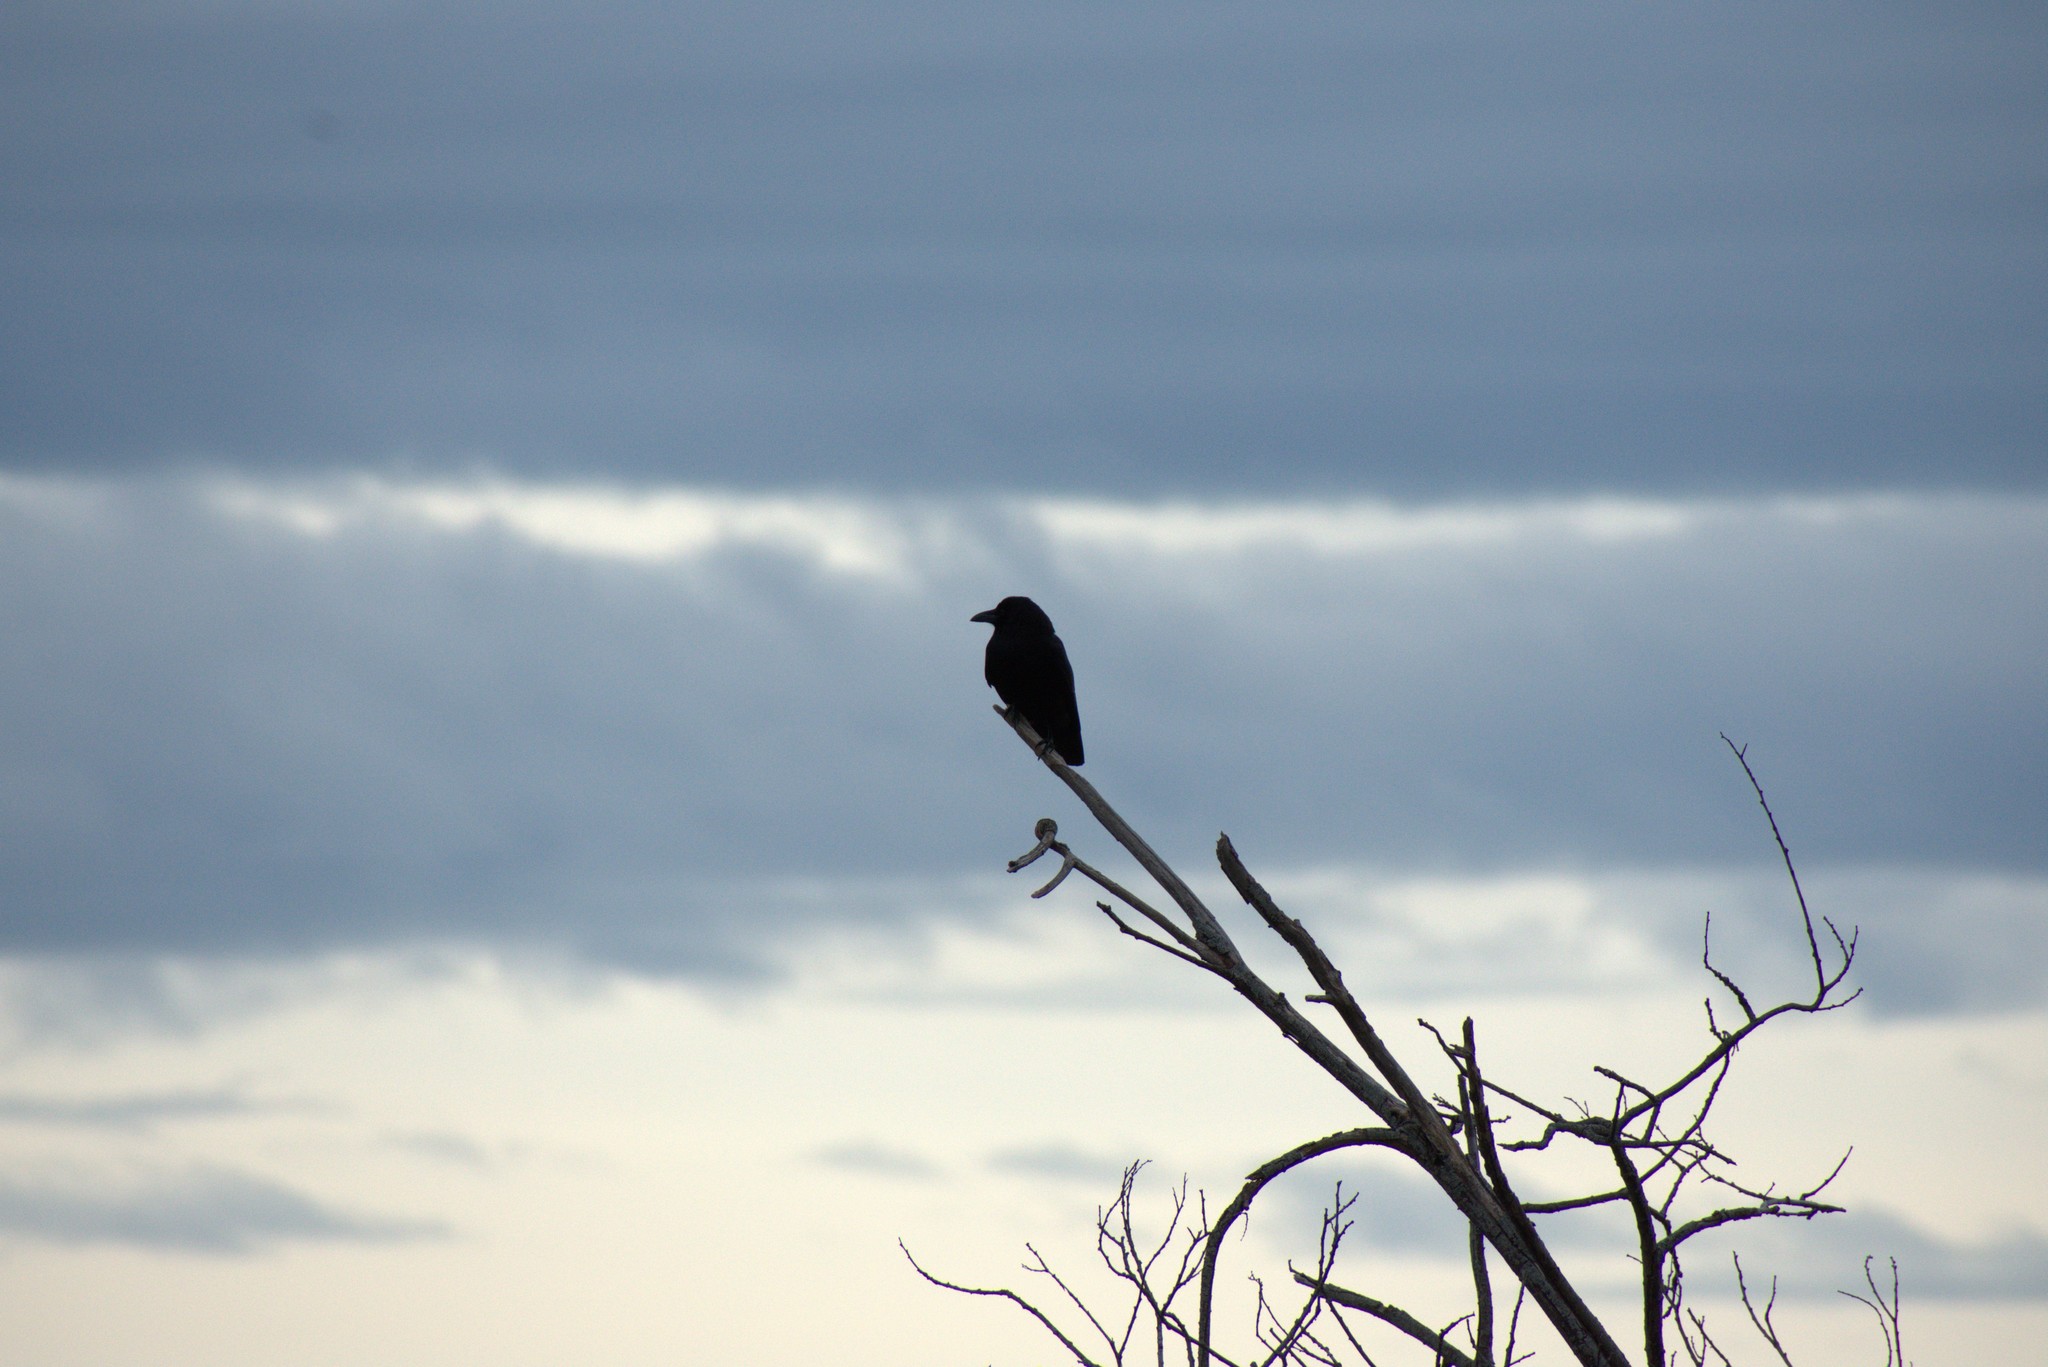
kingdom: Animalia
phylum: Chordata
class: Aves
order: Passeriformes
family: Corvidae
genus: Corvus
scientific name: Corvus brachyrhynchos
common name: American crow
